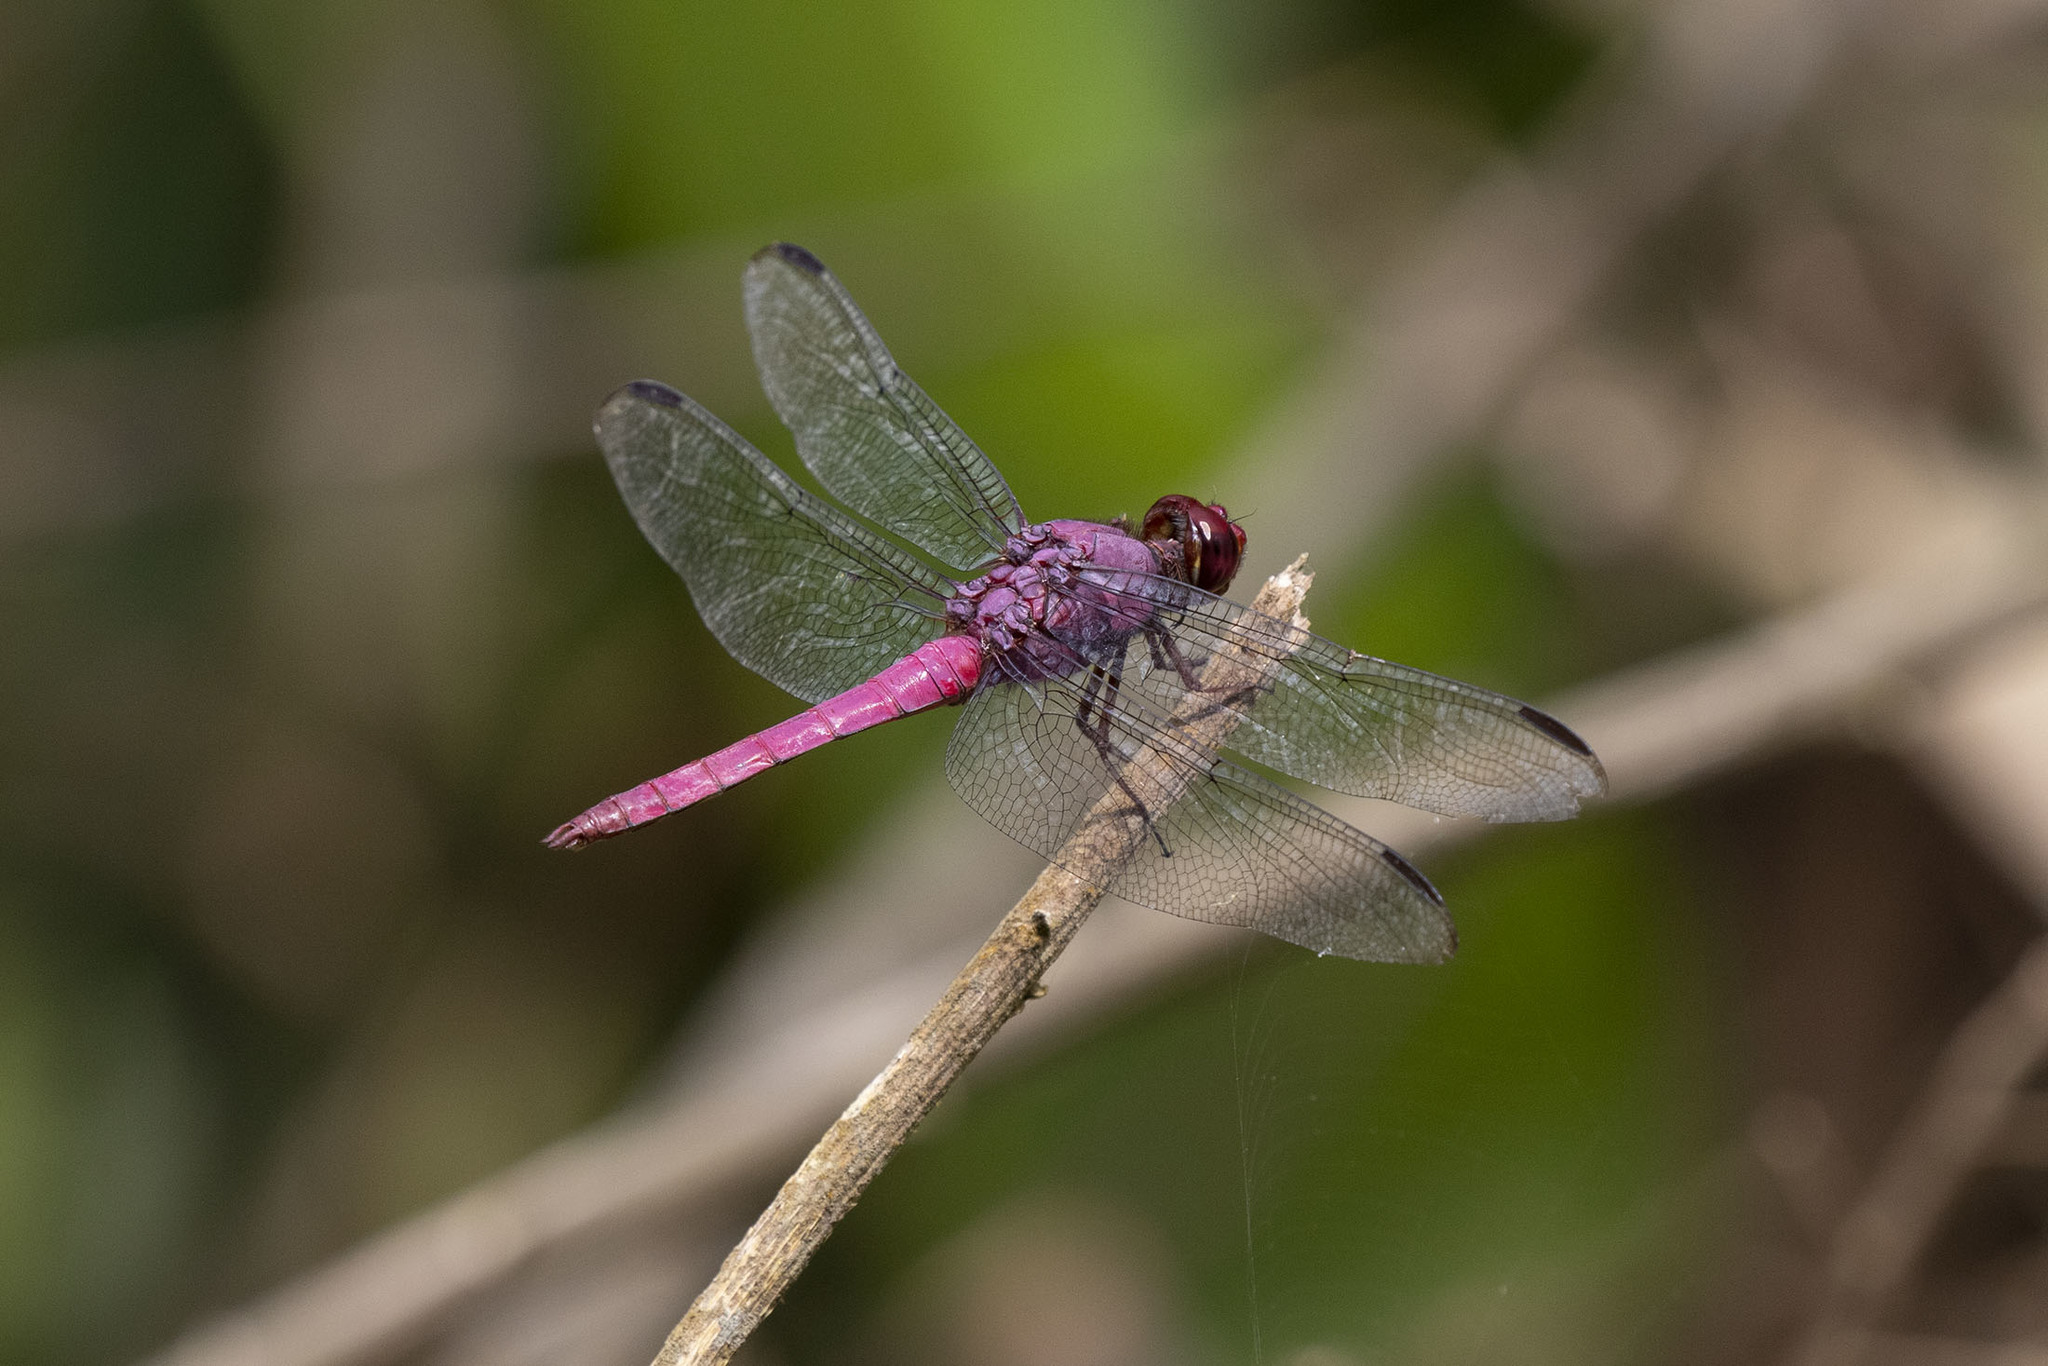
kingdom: Animalia
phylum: Arthropoda
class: Insecta
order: Odonata
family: Libellulidae
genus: Orthemis
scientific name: Orthemis discolor
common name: Carmine skimmer
